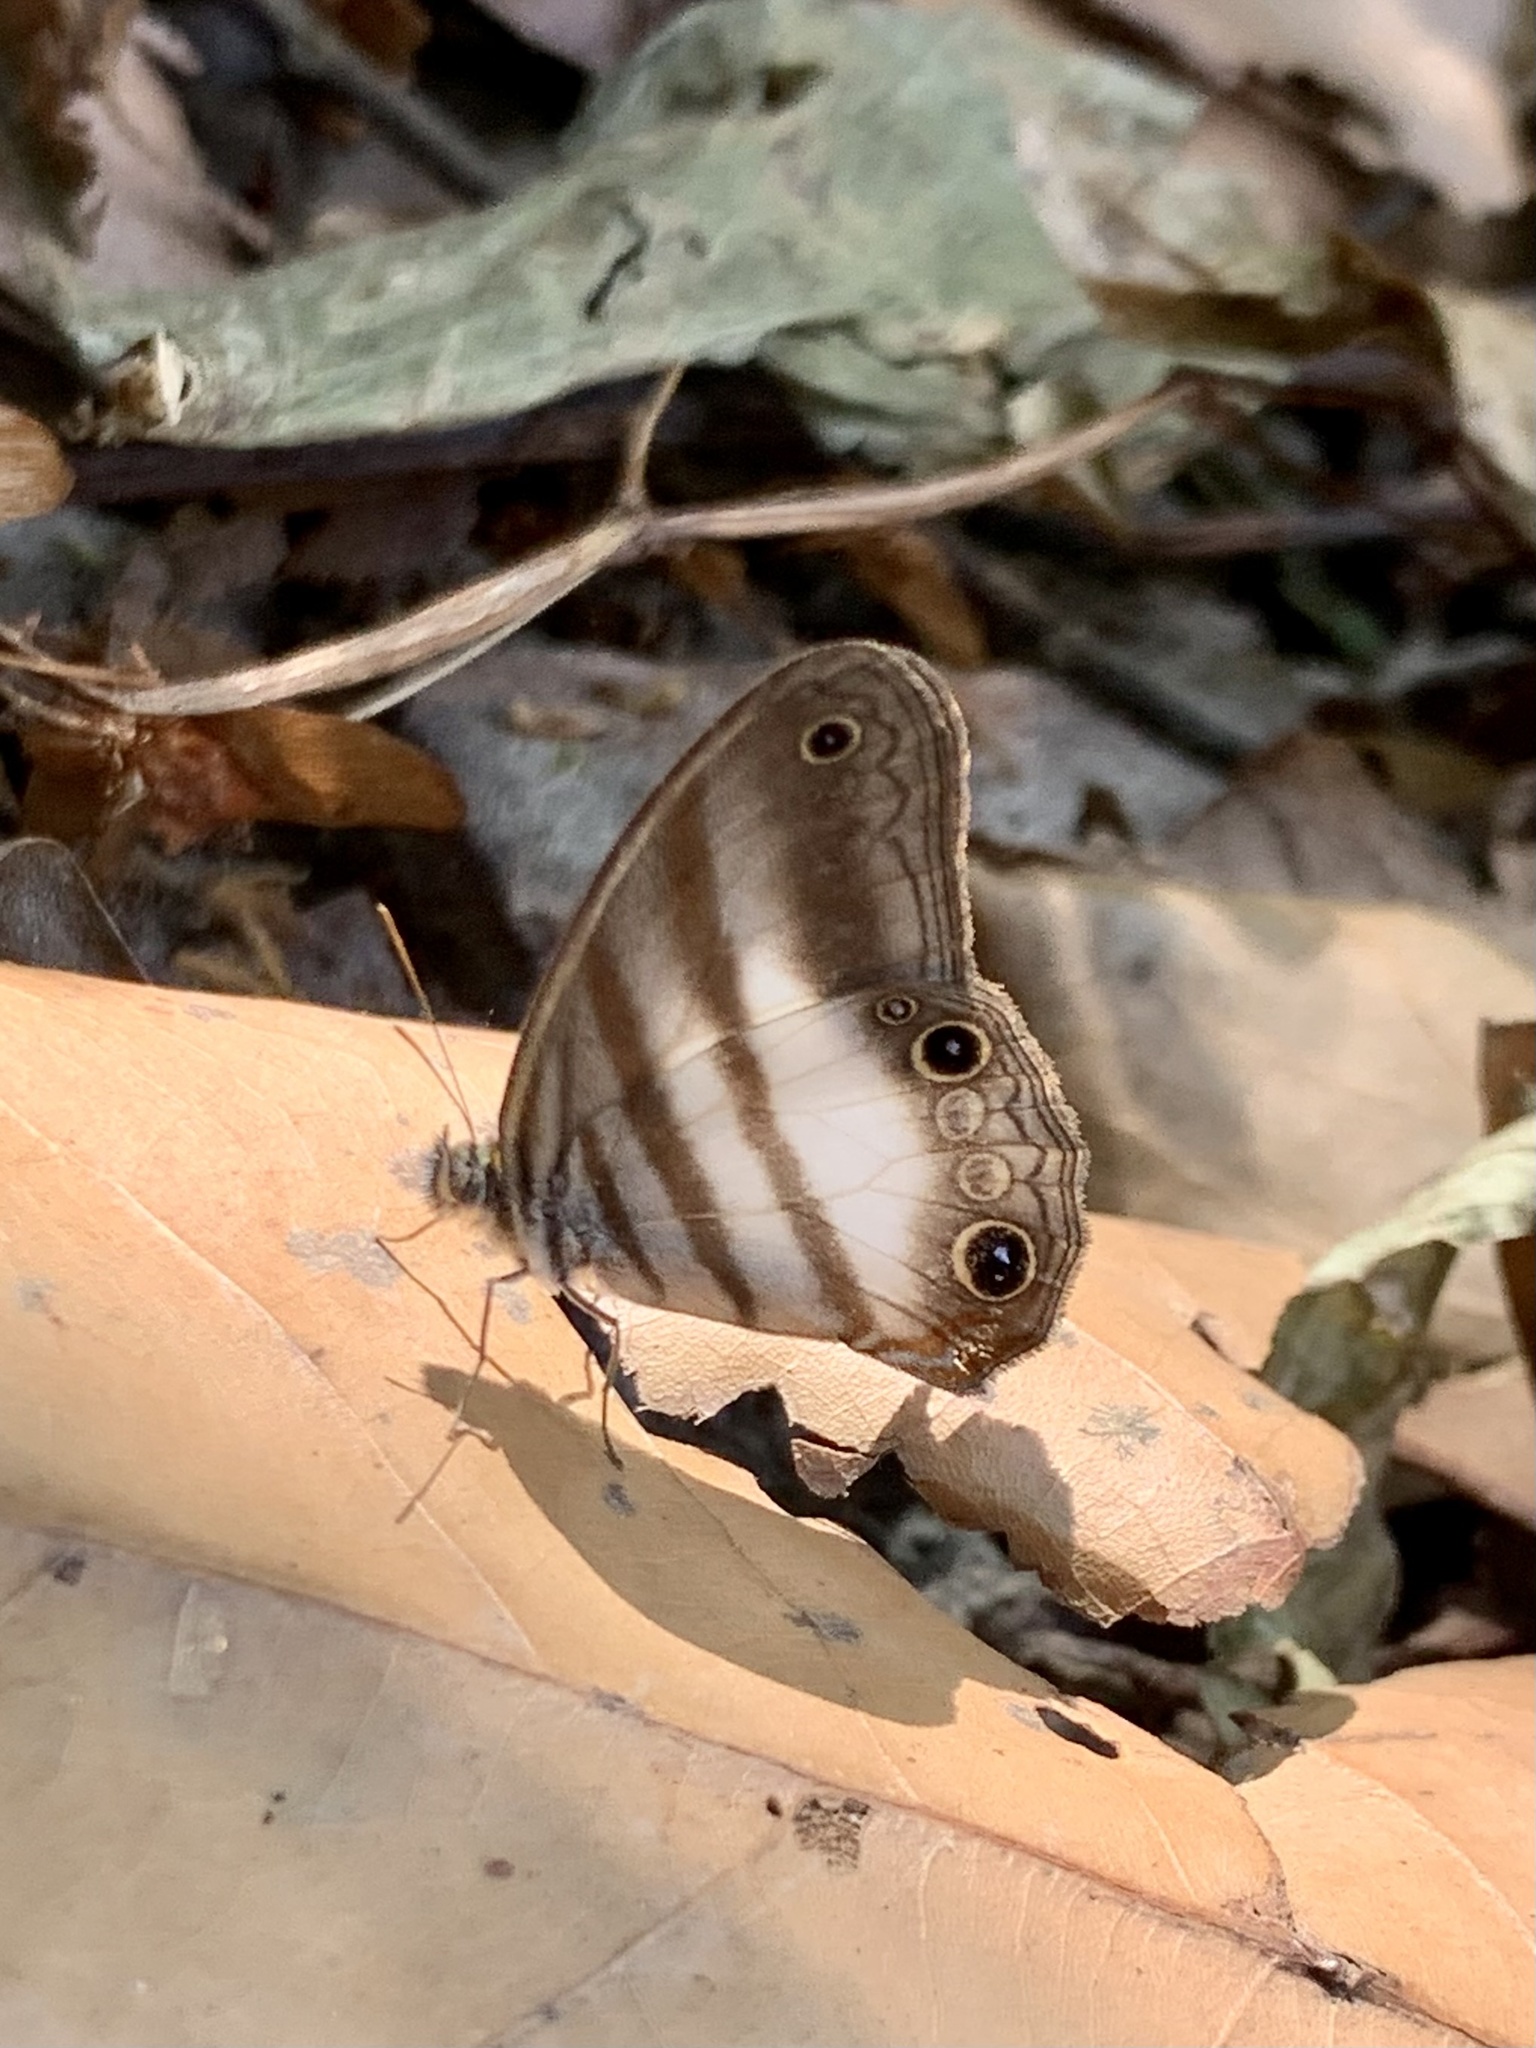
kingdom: Animalia
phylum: Arthropoda
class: Insecta
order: Lepidoptera
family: Nymphalidae
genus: Pareuptychia
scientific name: Pareuptychia metaleuca
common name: White-banded satyr
